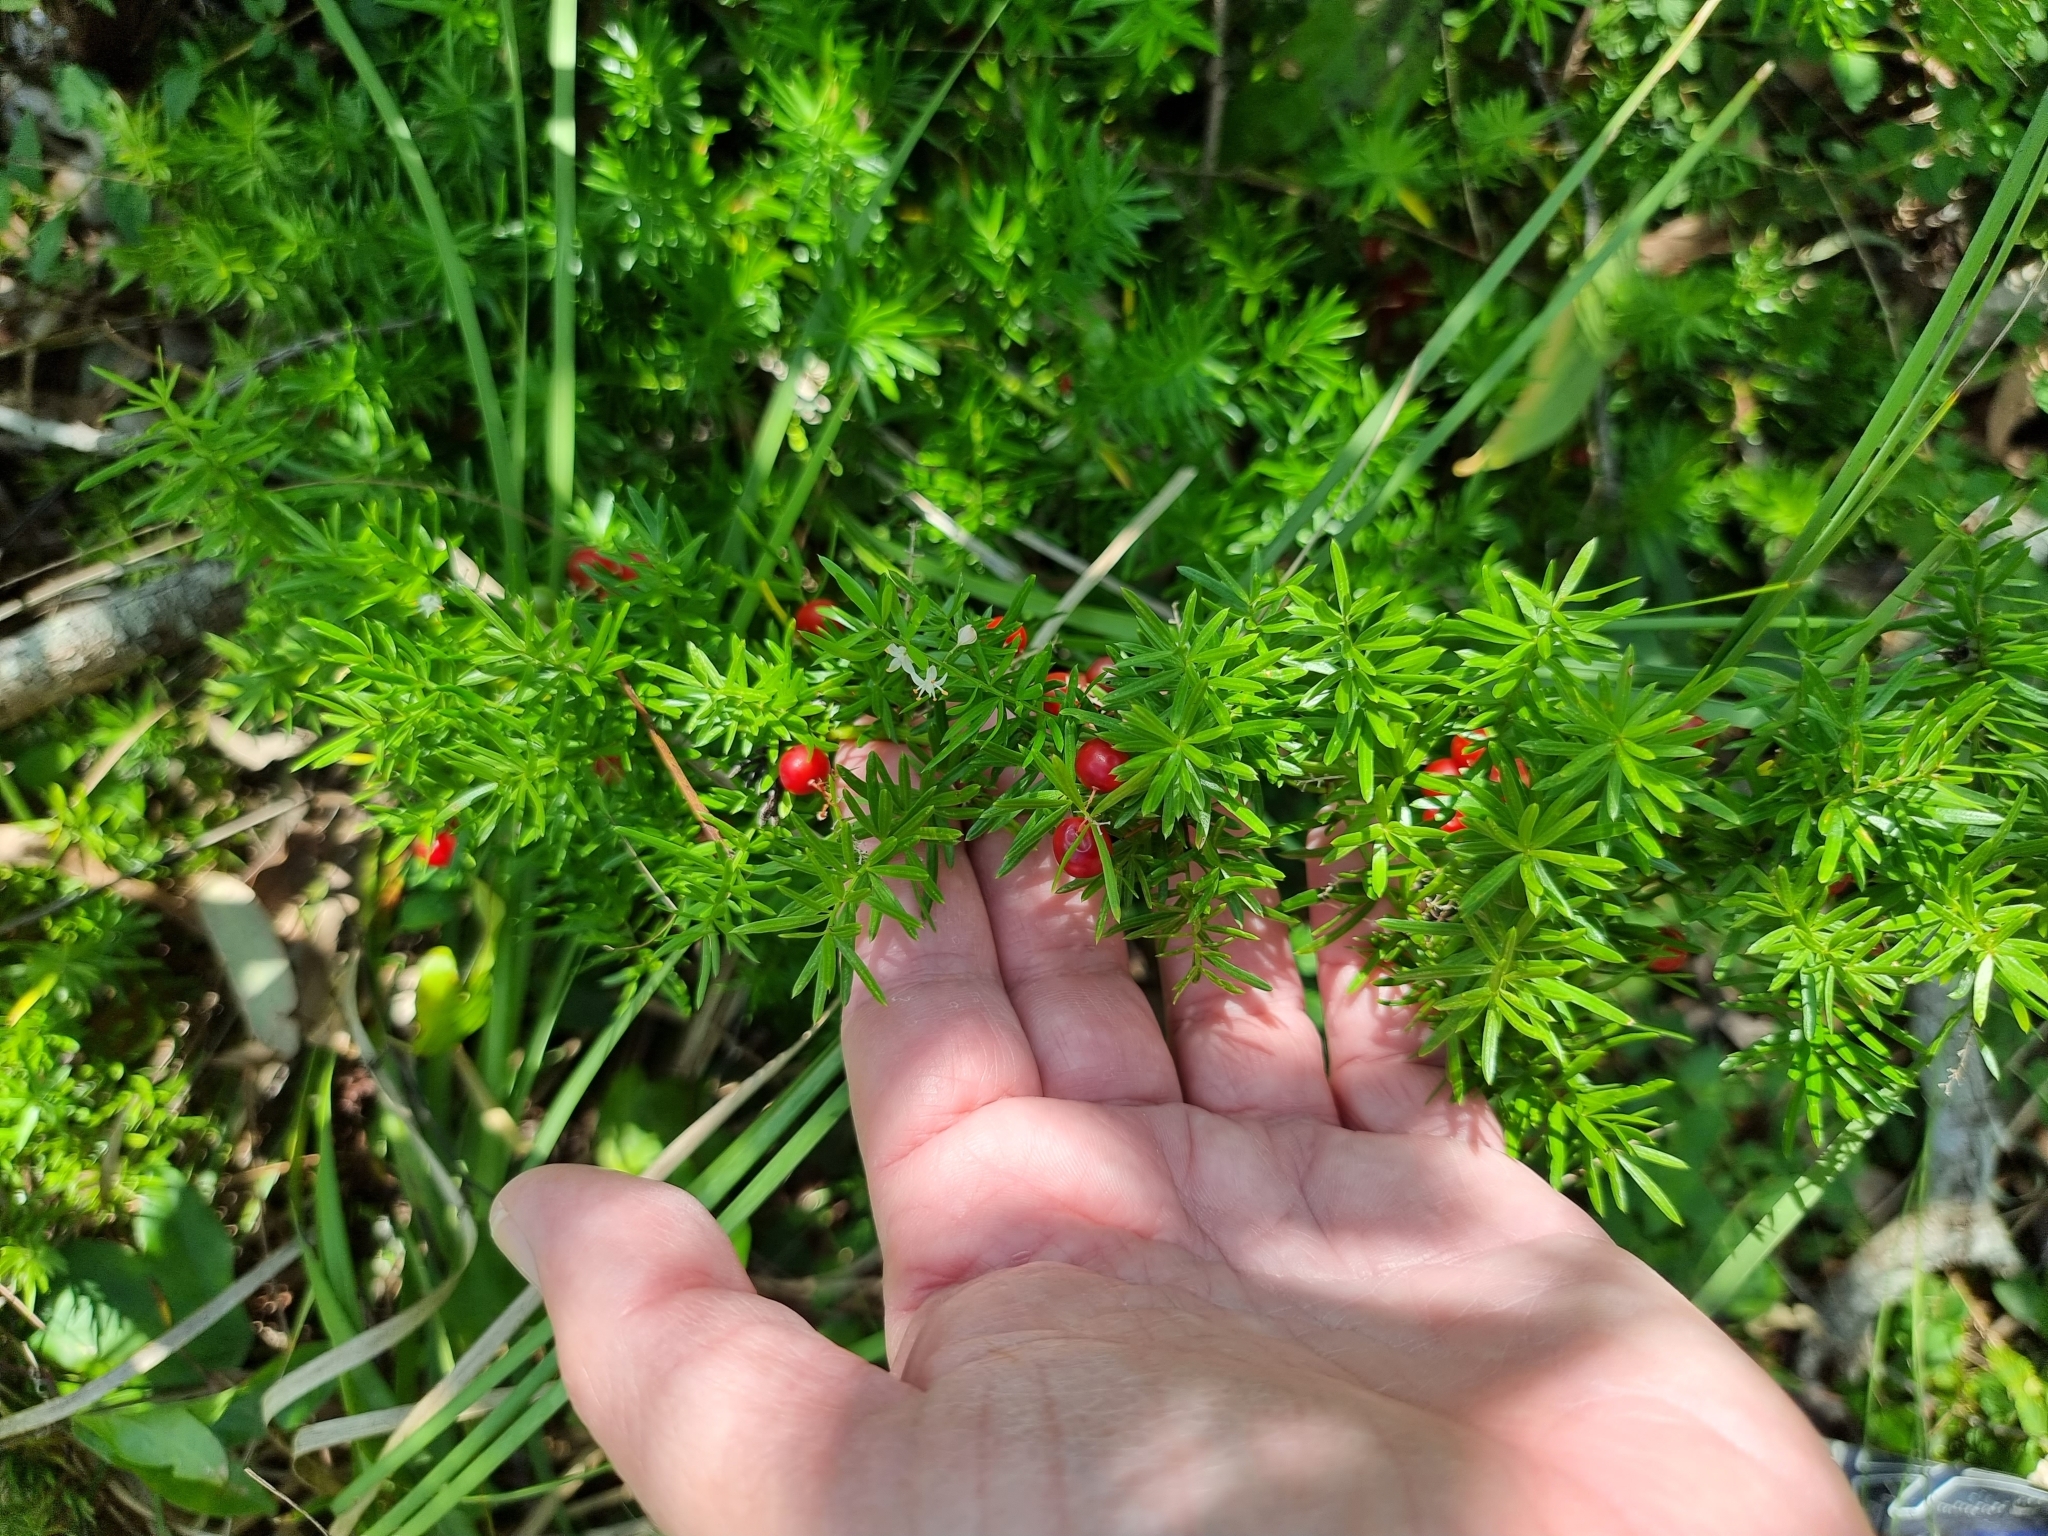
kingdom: Plantae
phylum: Tracheophyta
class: Liliopsida
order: Asparagales
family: Asparagaceae
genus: Asparagus
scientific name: Asparagus aethiopicus
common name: Sprenger's asparagus fern
